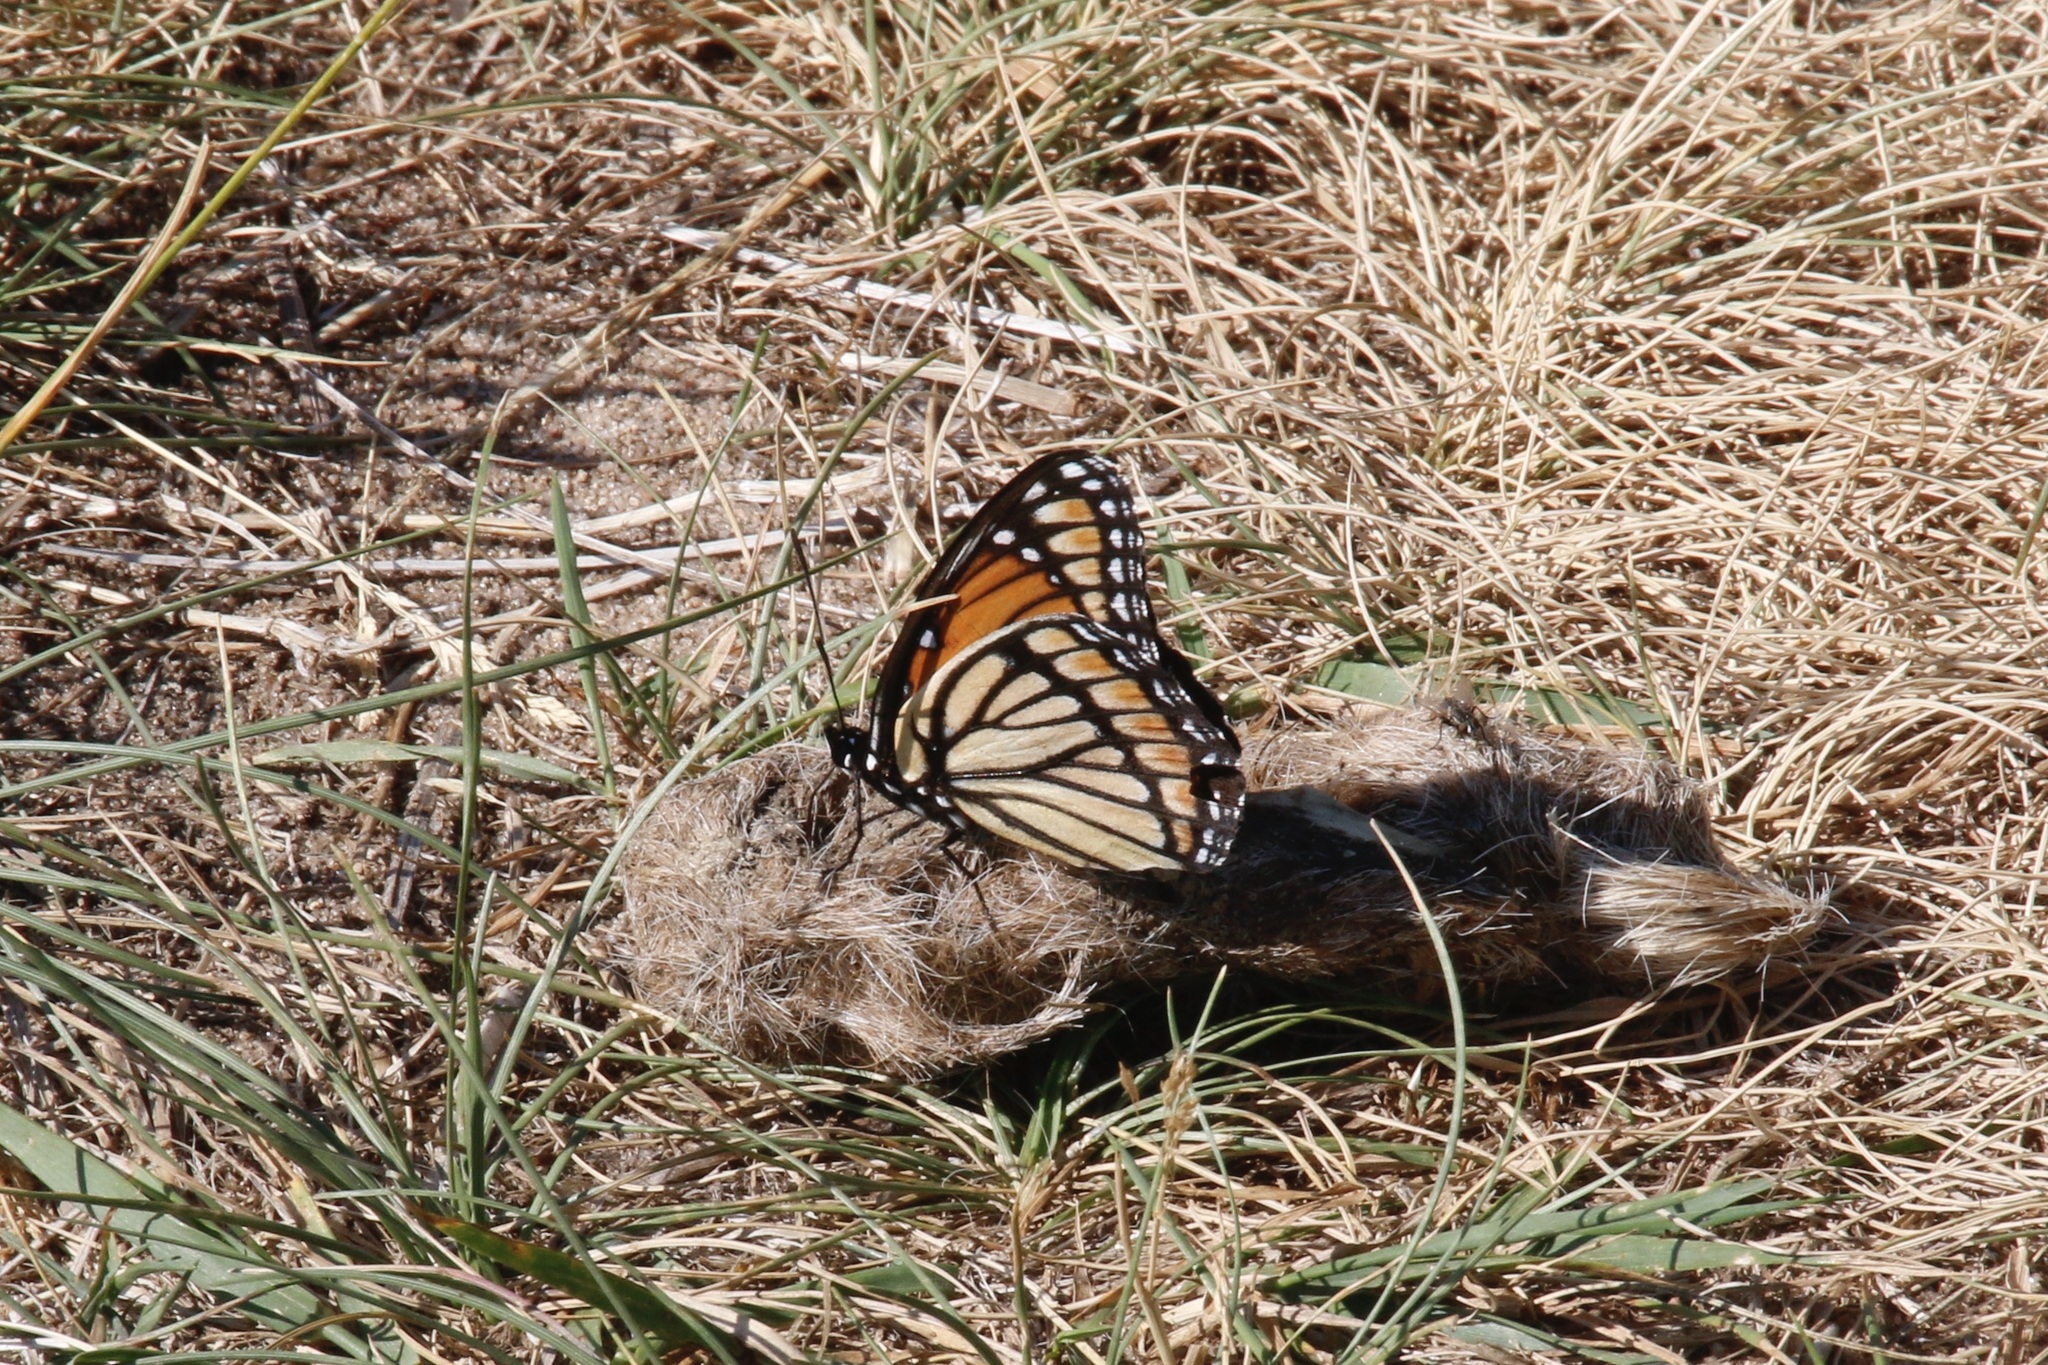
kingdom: Animalia
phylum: Arthropoda
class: Insecta
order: Lepidoptera
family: Nymphalidae
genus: Limenitis
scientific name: Limenitis archippus
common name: Viceroy
